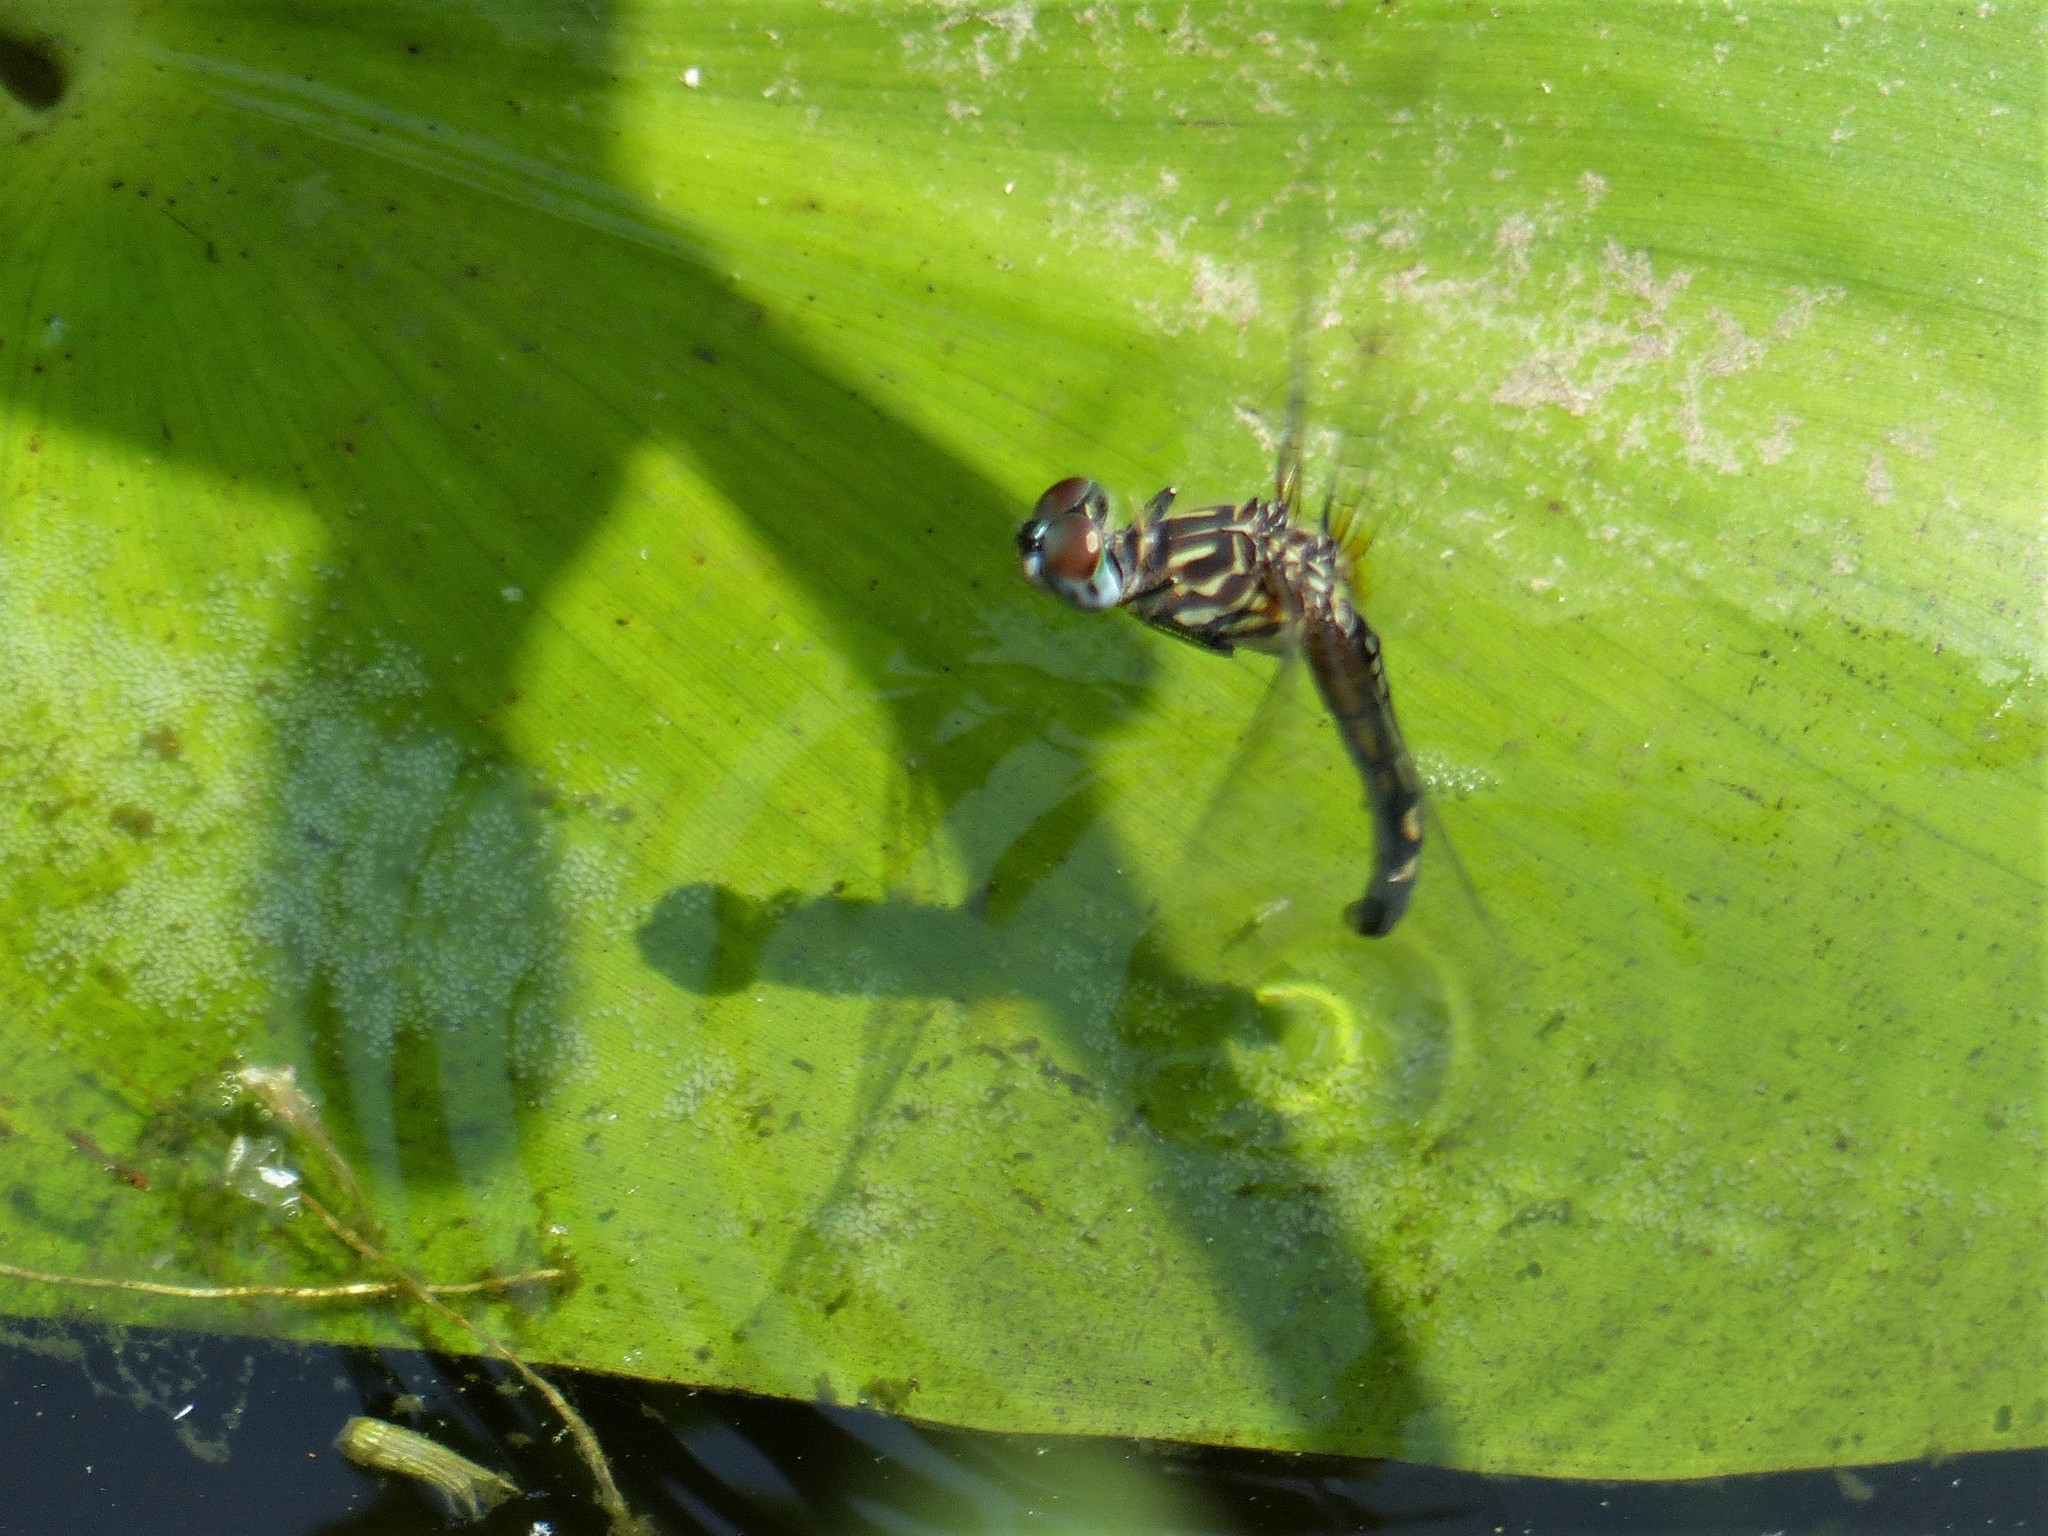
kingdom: Animalia
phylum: Arthropoda
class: Insecta
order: Odonata
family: Libellulidae
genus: Pachydiplax
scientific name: Pachydiplax longipennis
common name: Blue dasher
